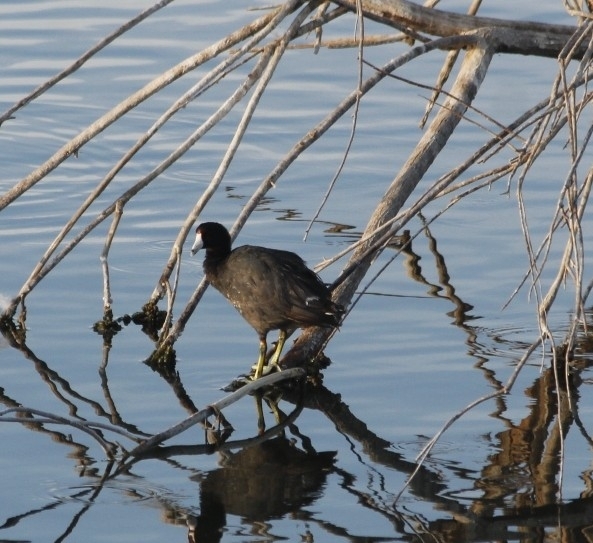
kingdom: Animalia
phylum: Chordata
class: Aves
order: Gruiformes
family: Rallidae
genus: Fulica
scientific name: Fulica americana
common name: American coot
